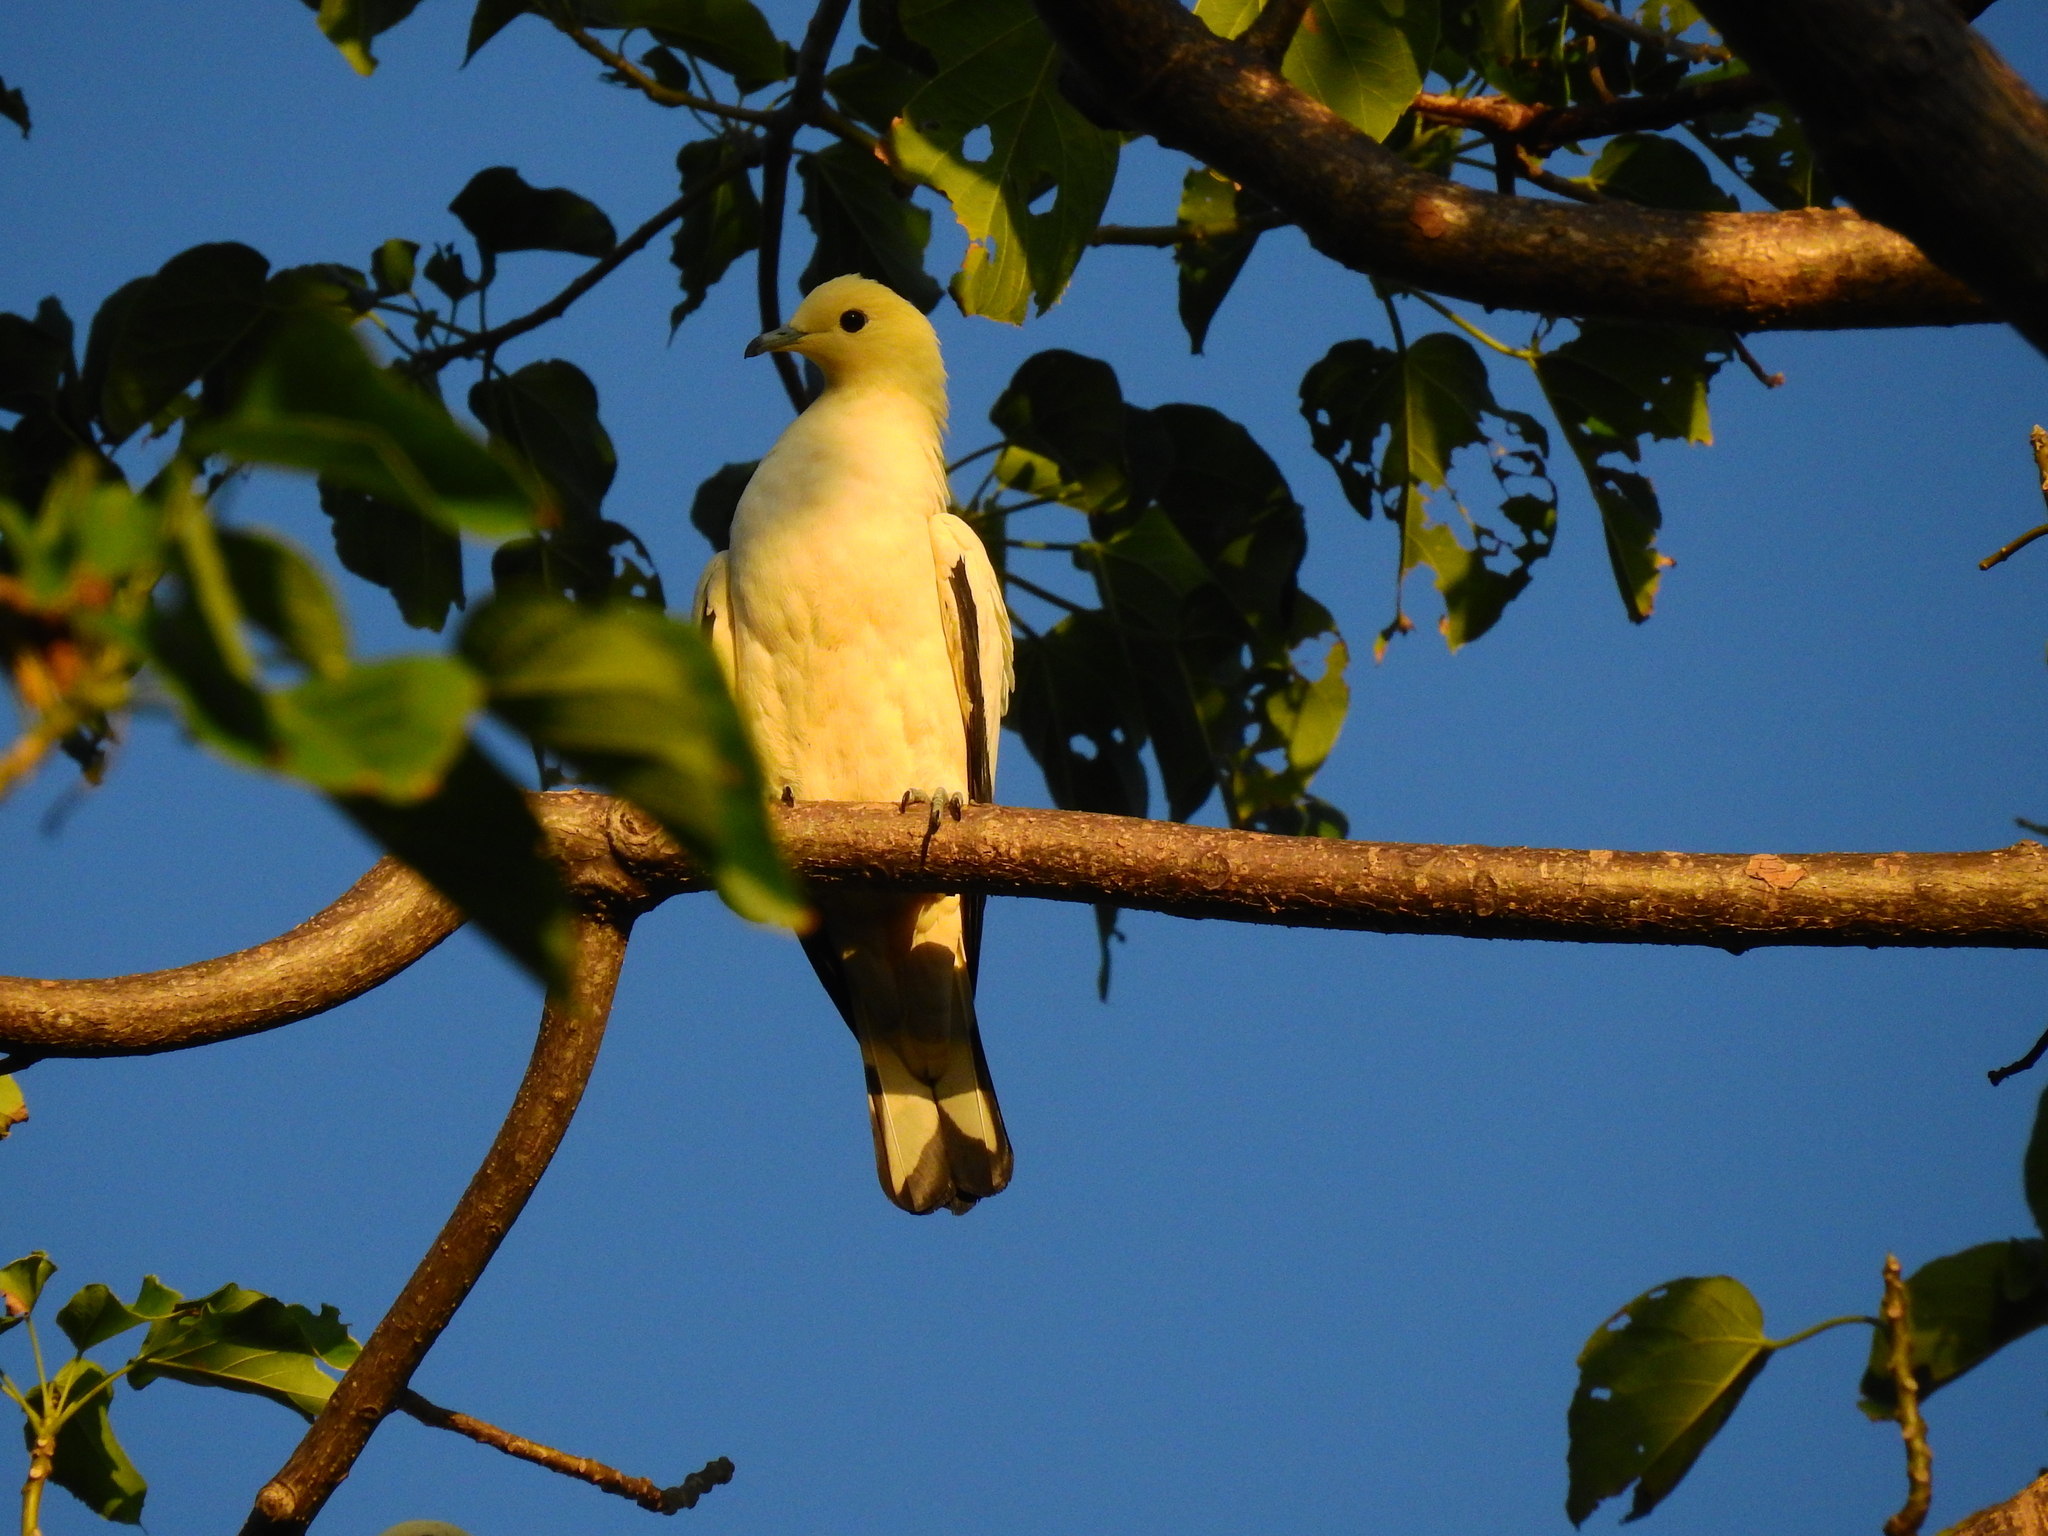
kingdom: Animalia
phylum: Chordata
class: Aves
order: Columbiformes
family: Columbidae
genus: Ducula
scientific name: Ducula bicolor
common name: Pied imperial pigeon
